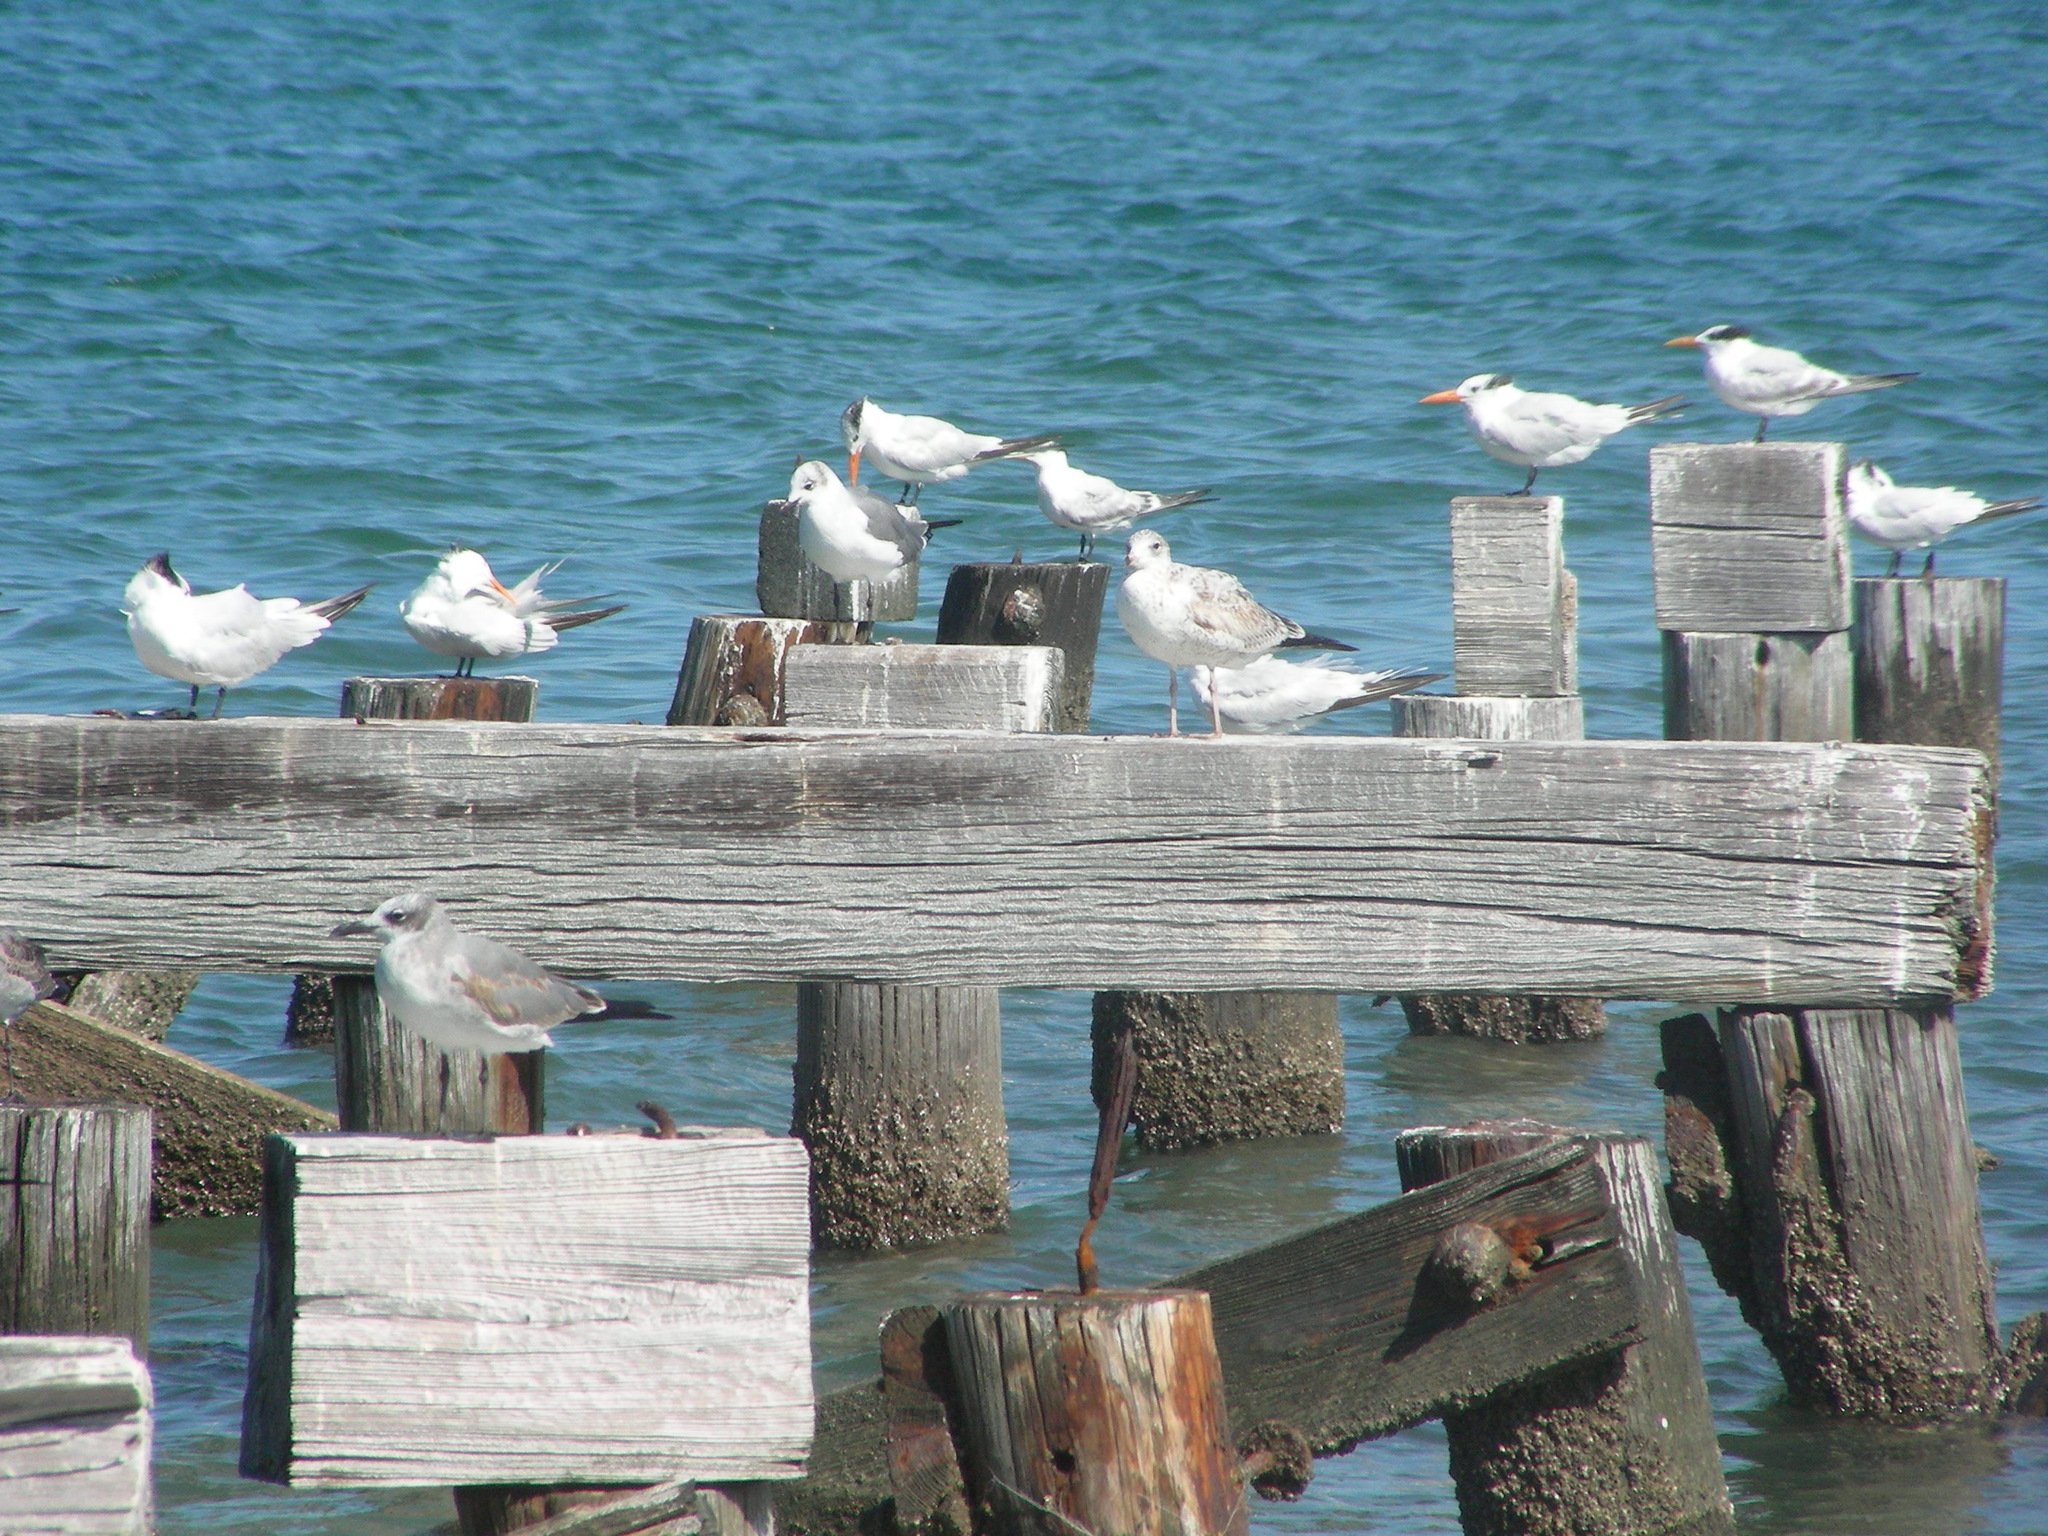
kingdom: Animalia
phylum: Chordata
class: Aves
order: Charadriiformes
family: Laridae
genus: Thalasseus
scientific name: Thalasseus maximus
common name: Royal tern
